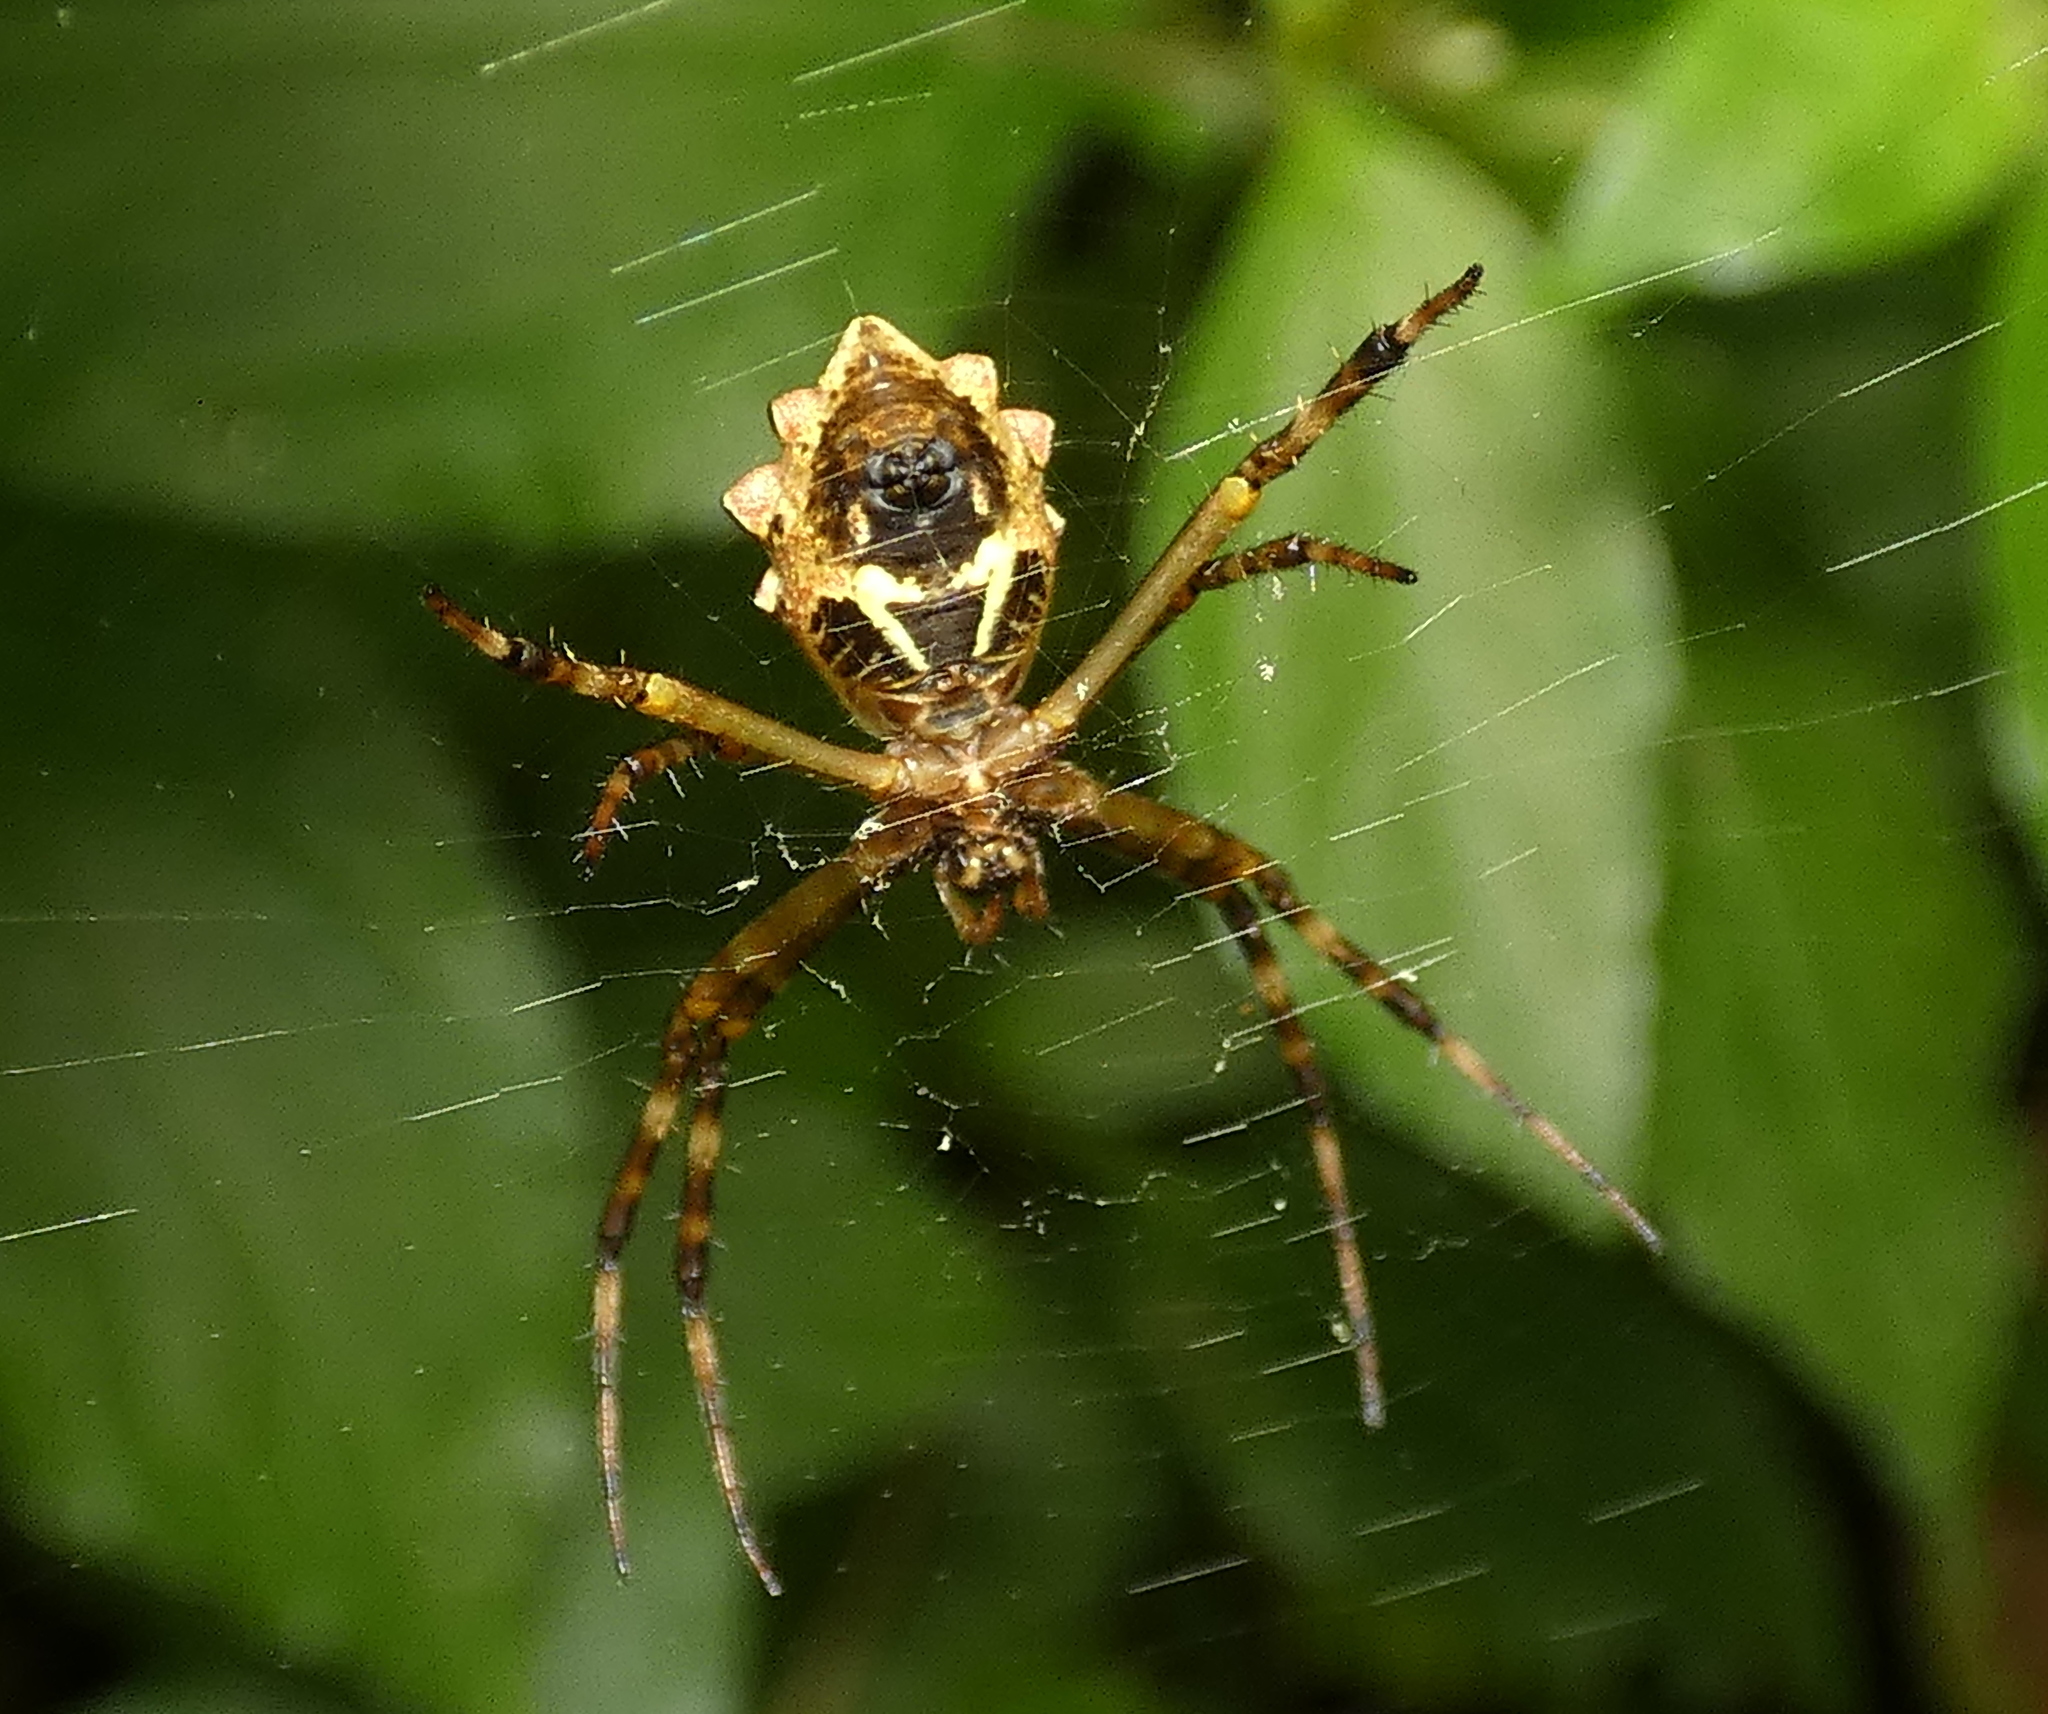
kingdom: Animalia
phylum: Arthropoda
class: Arachnida
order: Araneae
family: Araneidae
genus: Argiope
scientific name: Argiope argentata
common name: Orb weavers
